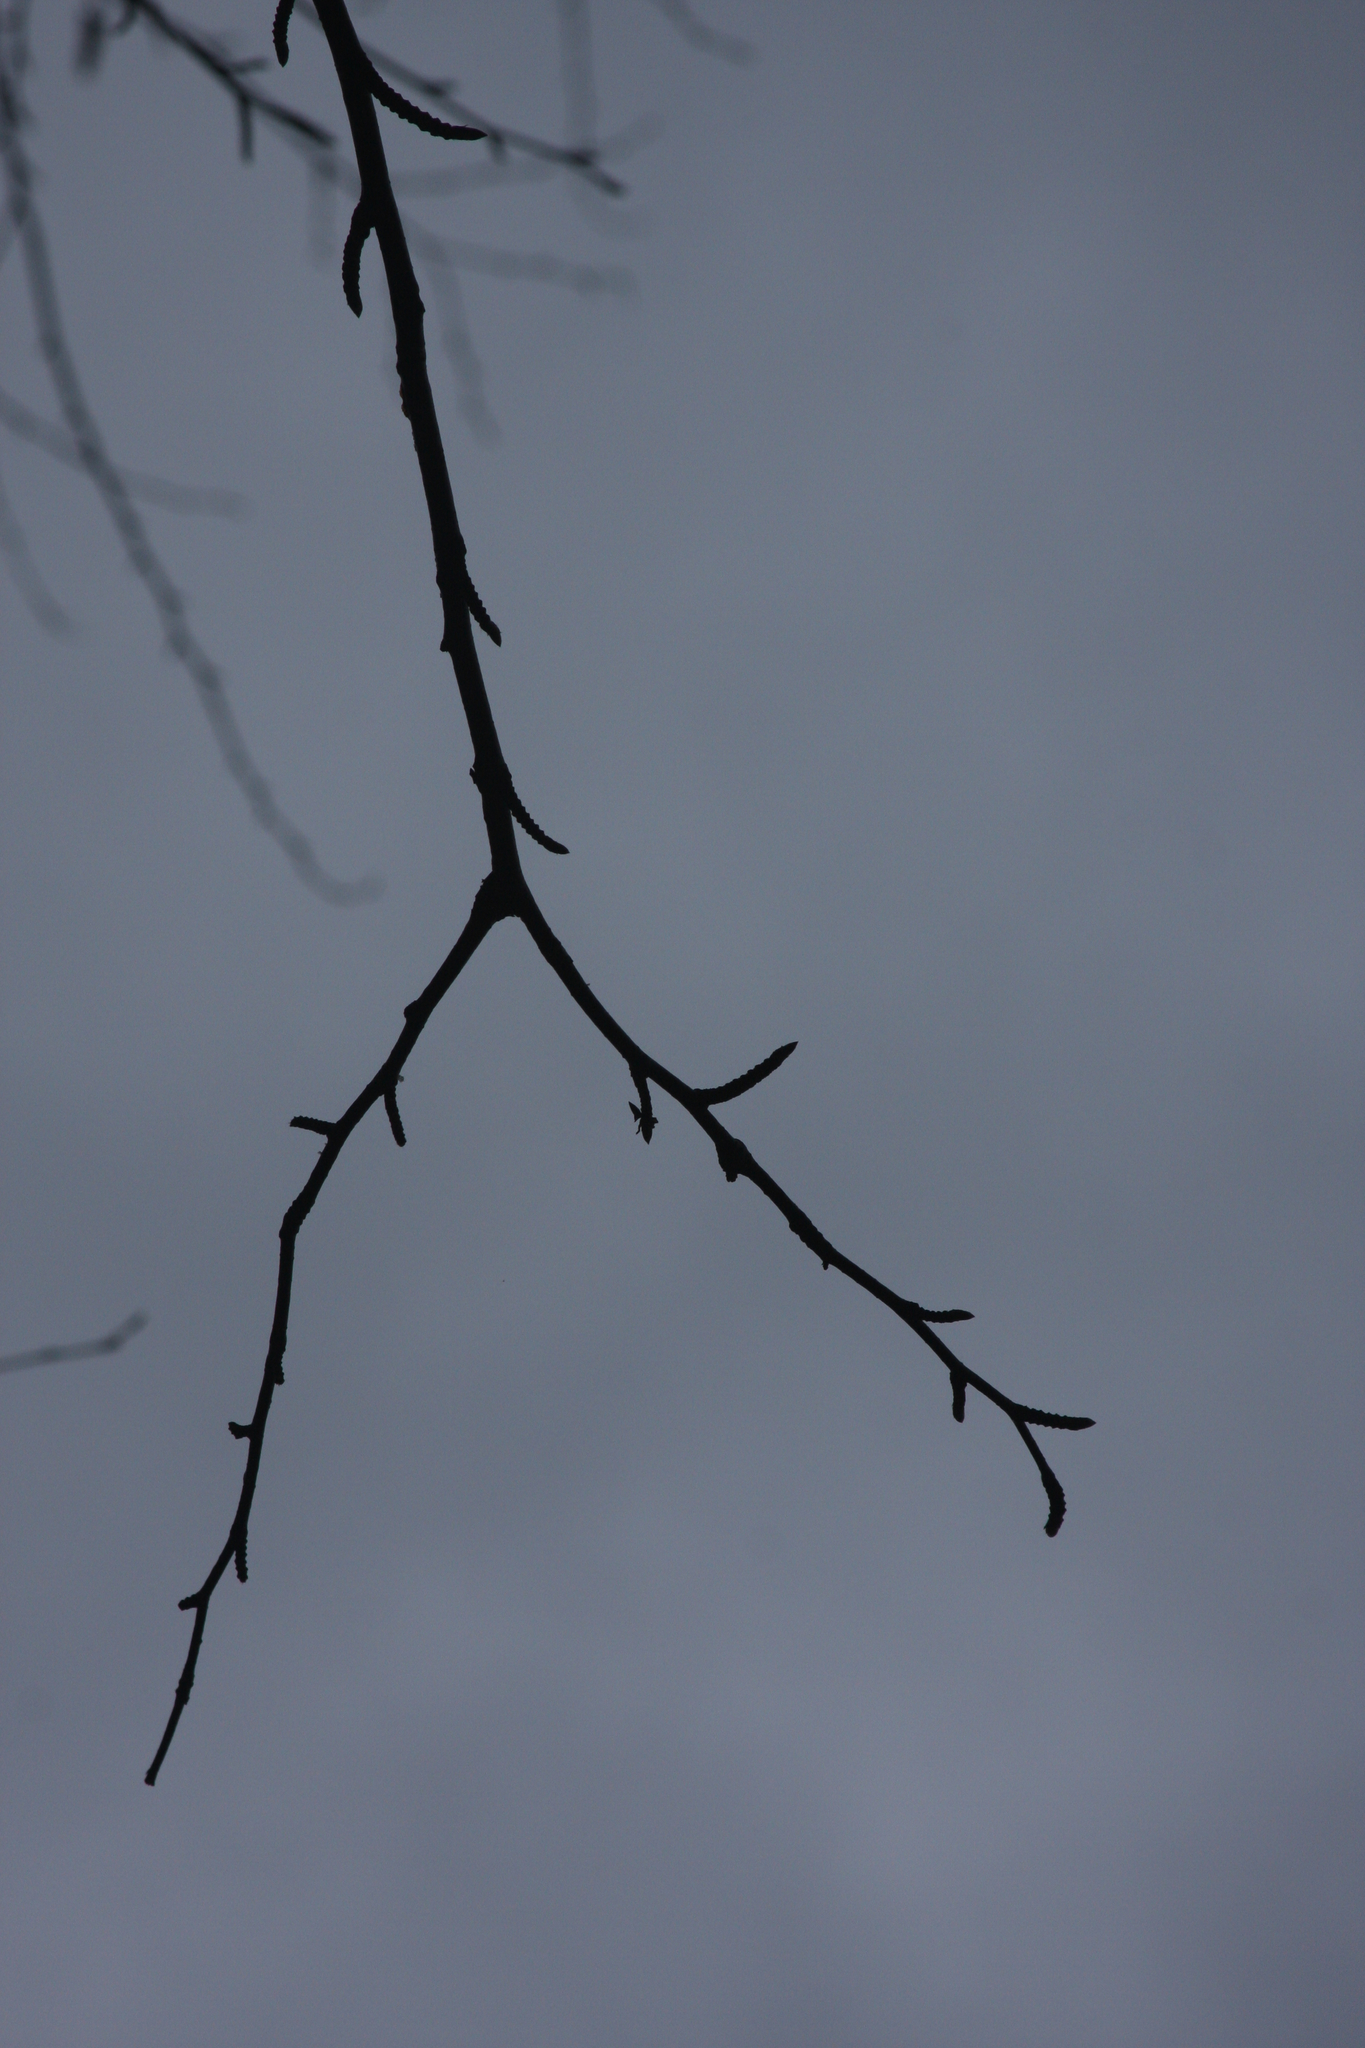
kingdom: Plantae
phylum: Tracheophyta
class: Magnoliopsida
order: Fagales
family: Betulaceae
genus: Betula
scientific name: Betula alleghaniensis
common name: Yellow birch
